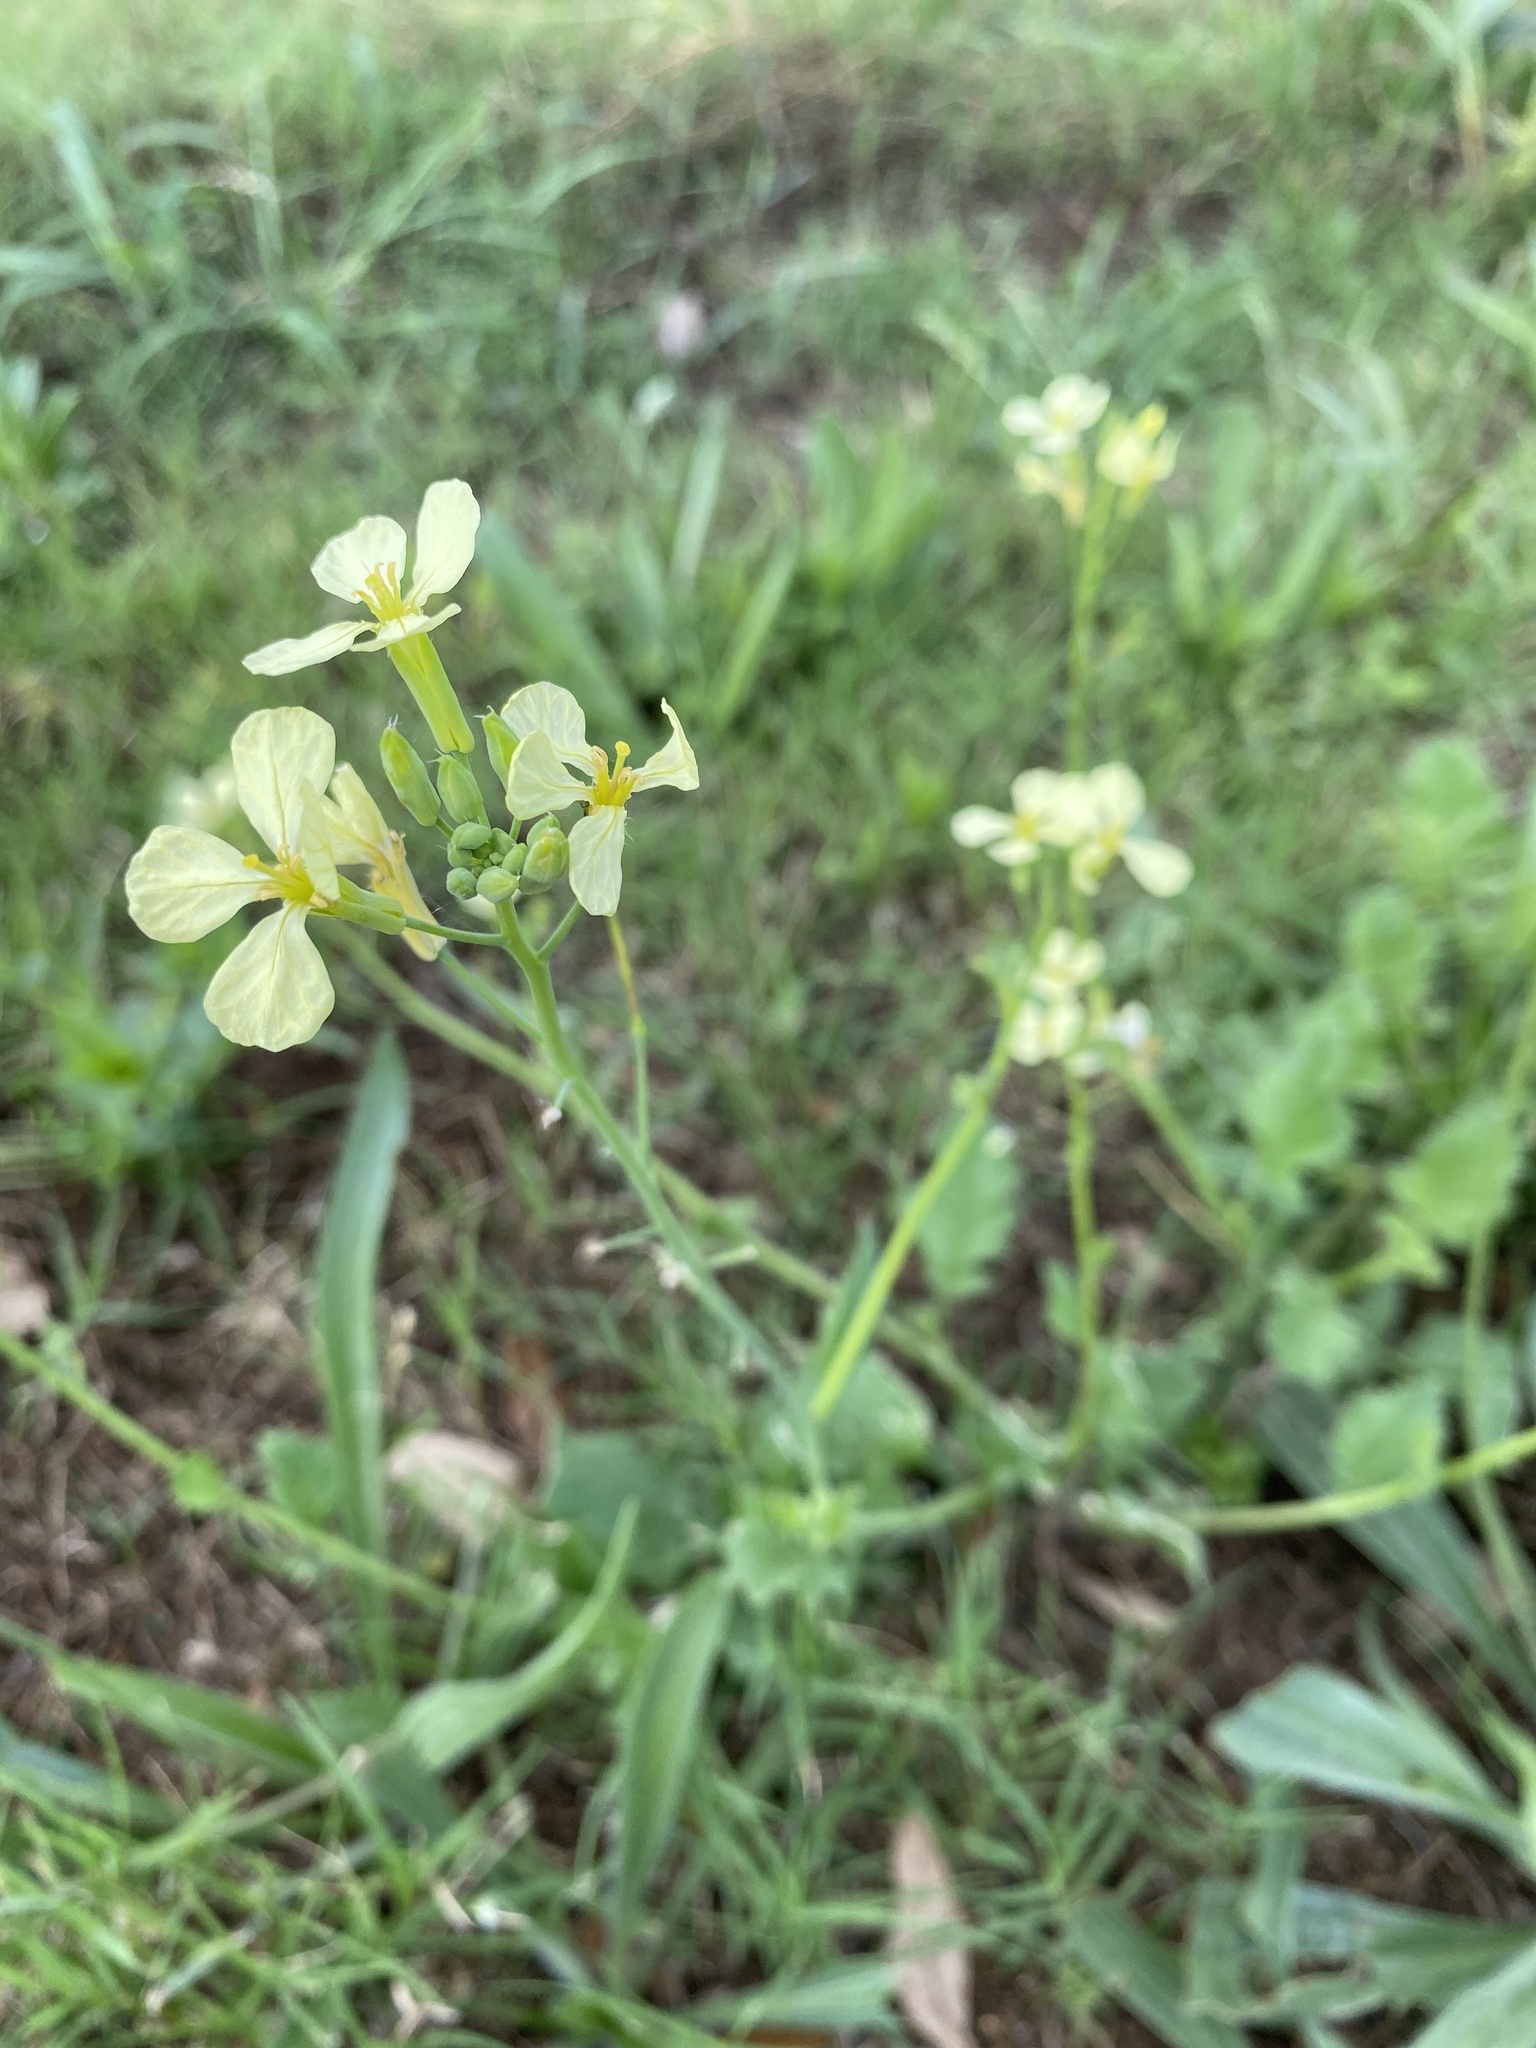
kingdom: Plantae
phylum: Tracheophyta
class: Magnoliopsida
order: Brassicales
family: Brassicaceae
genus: Raphanus
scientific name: Raphanus raphanistrum
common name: Wild radish
